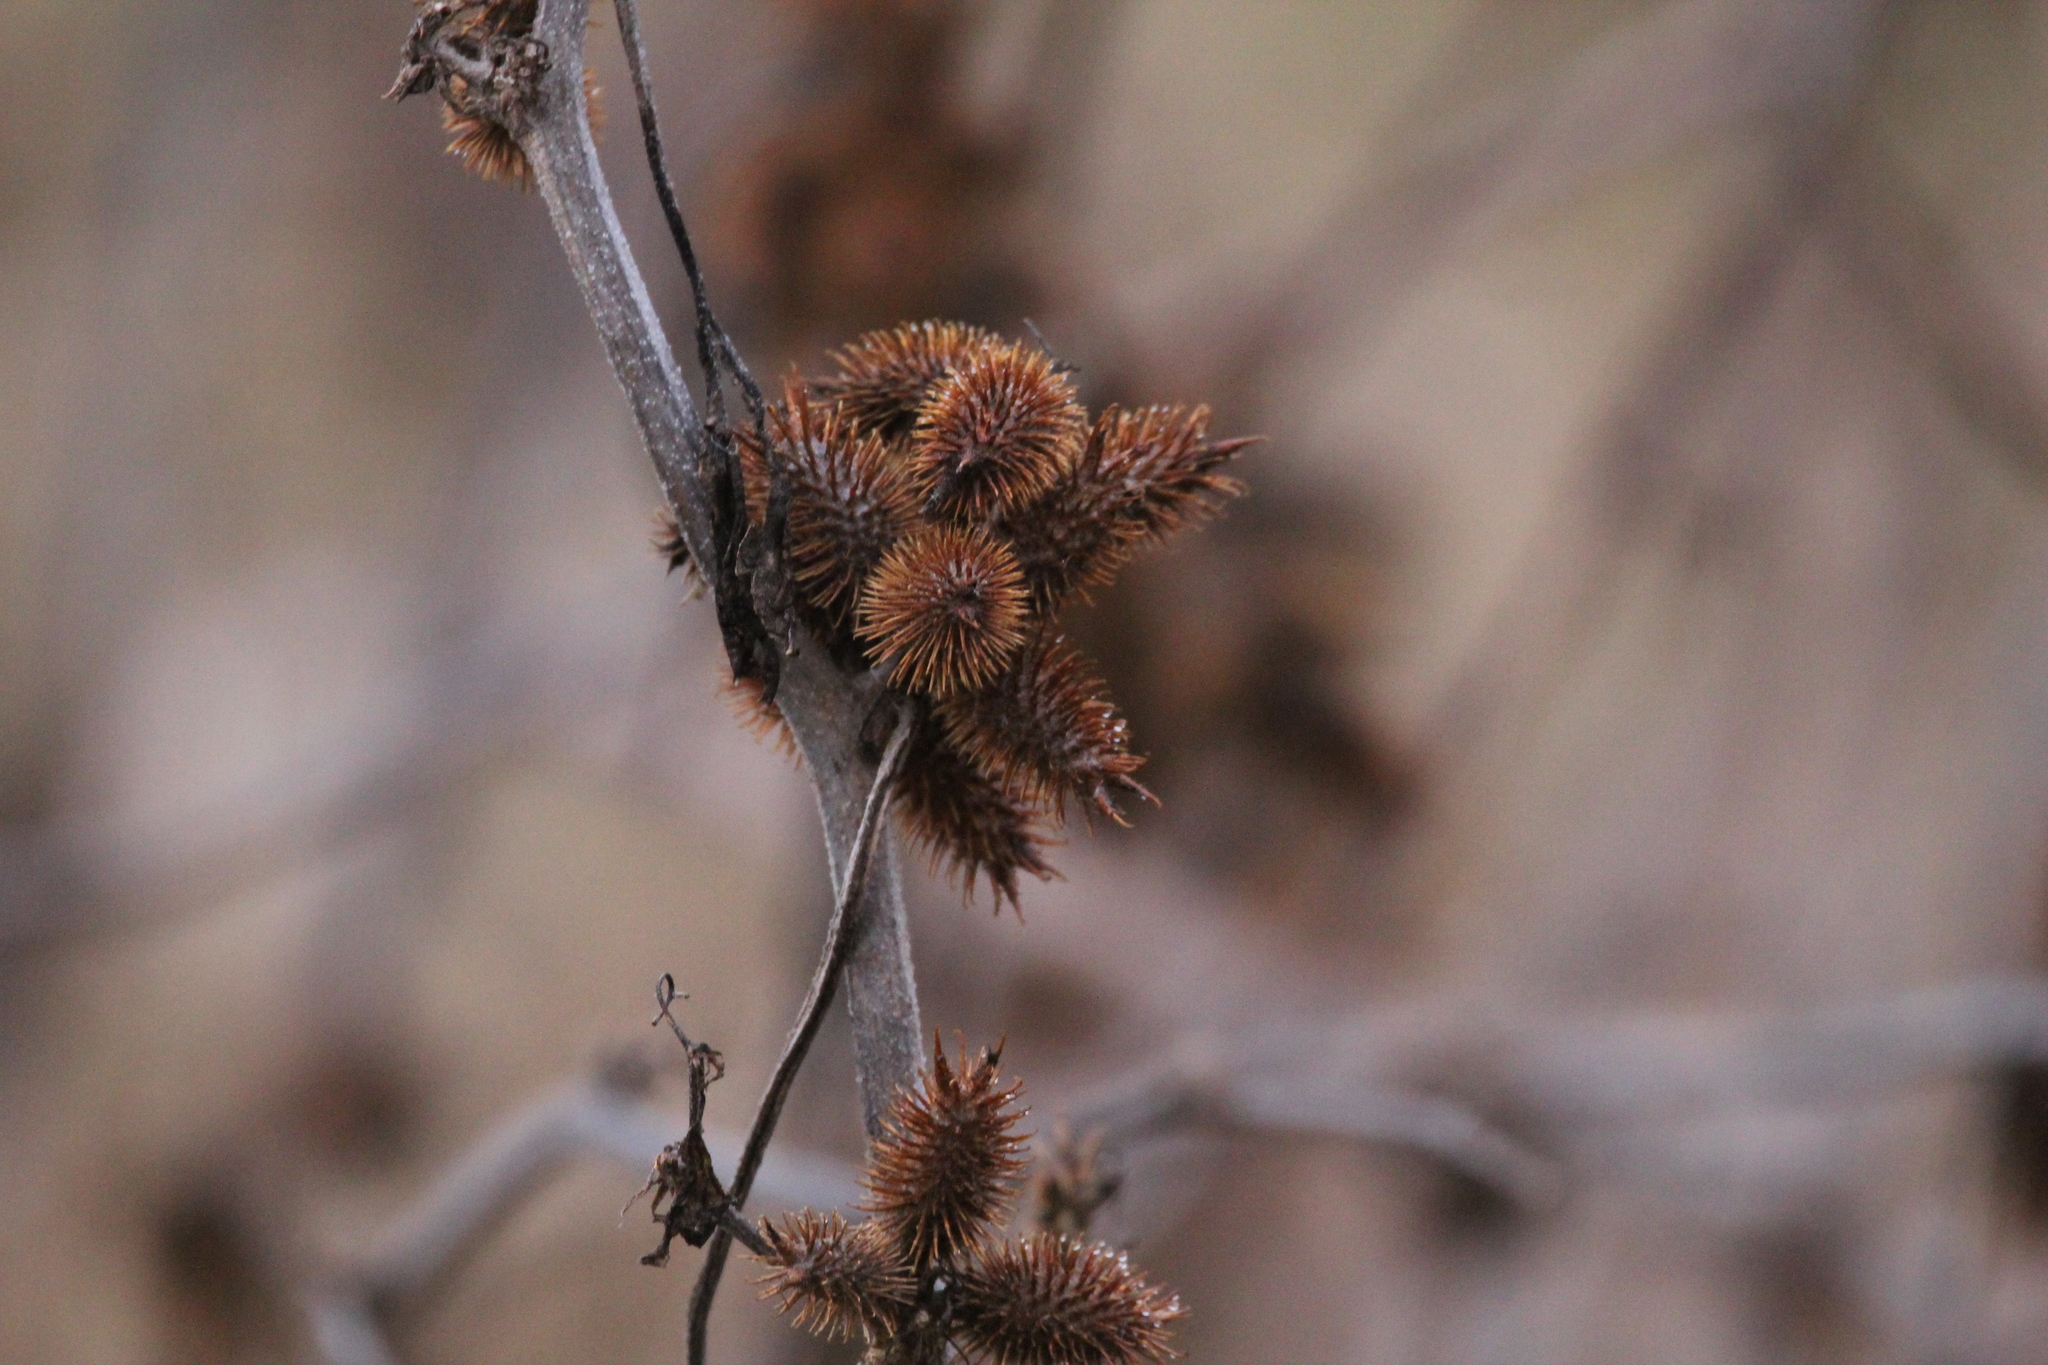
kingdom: Plantae
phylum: Tracheophyta
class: Magnoliopsida
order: Asterales
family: Asteraceae
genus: Xanthium
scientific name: Xanthium strumarium
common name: Rough cocklebur
